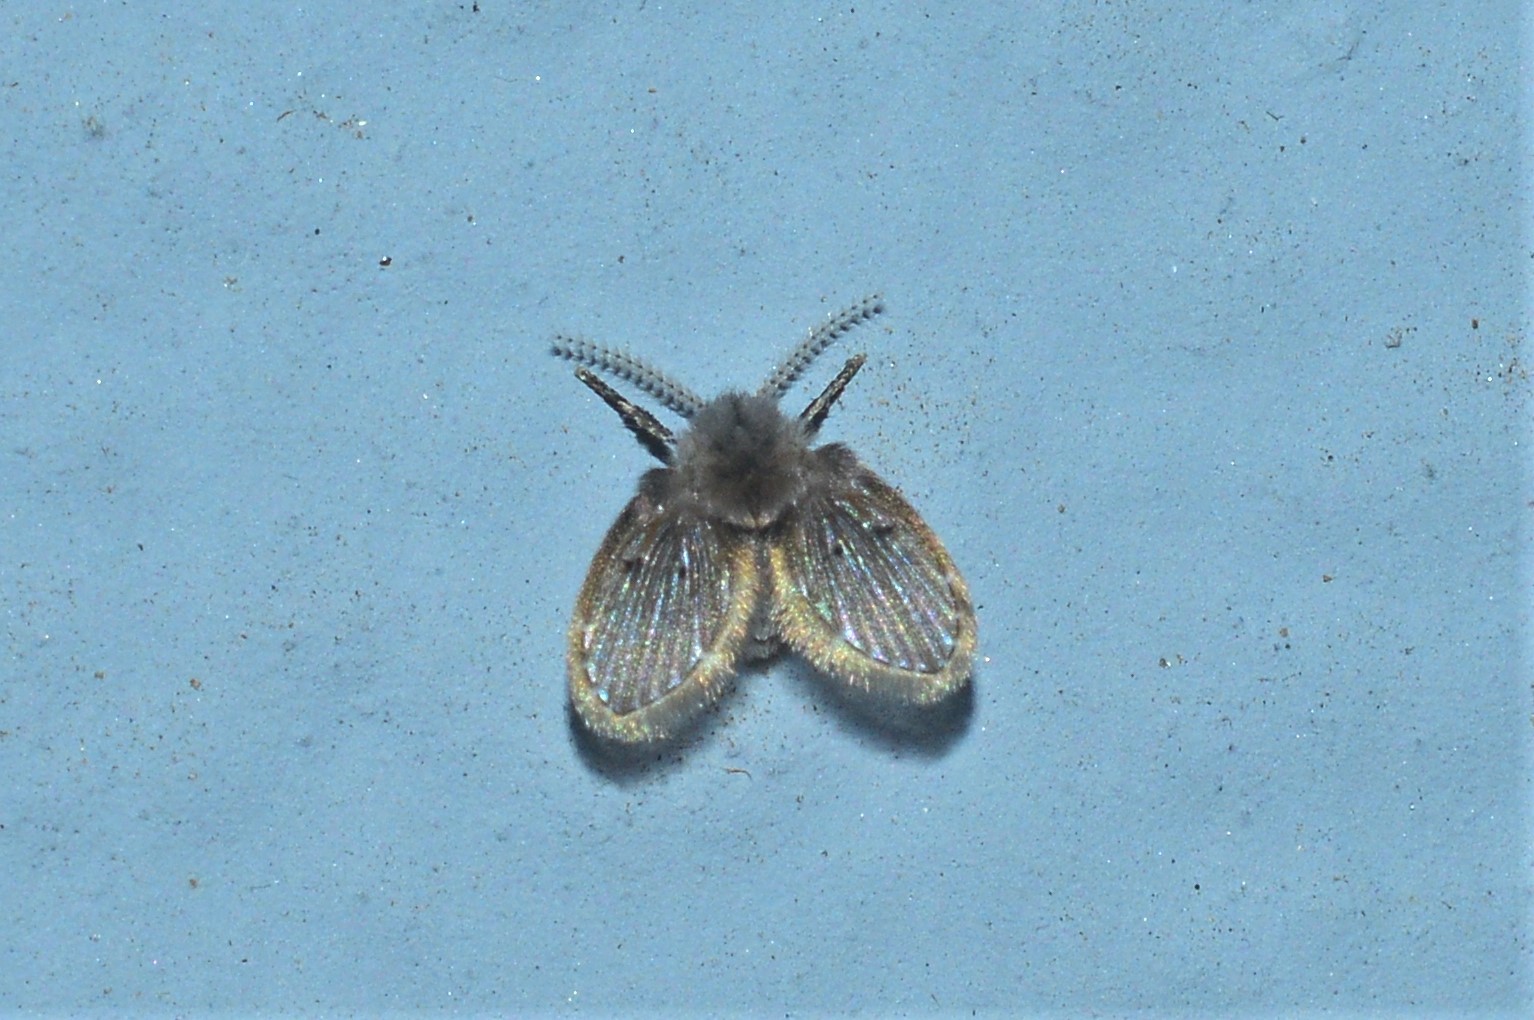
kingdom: Animalia
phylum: Arthropoda
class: Insecta
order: Diptera
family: Psychodidae
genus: Clogmia
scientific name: Clogmia albipunctatus
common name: White-spotted moth fly
